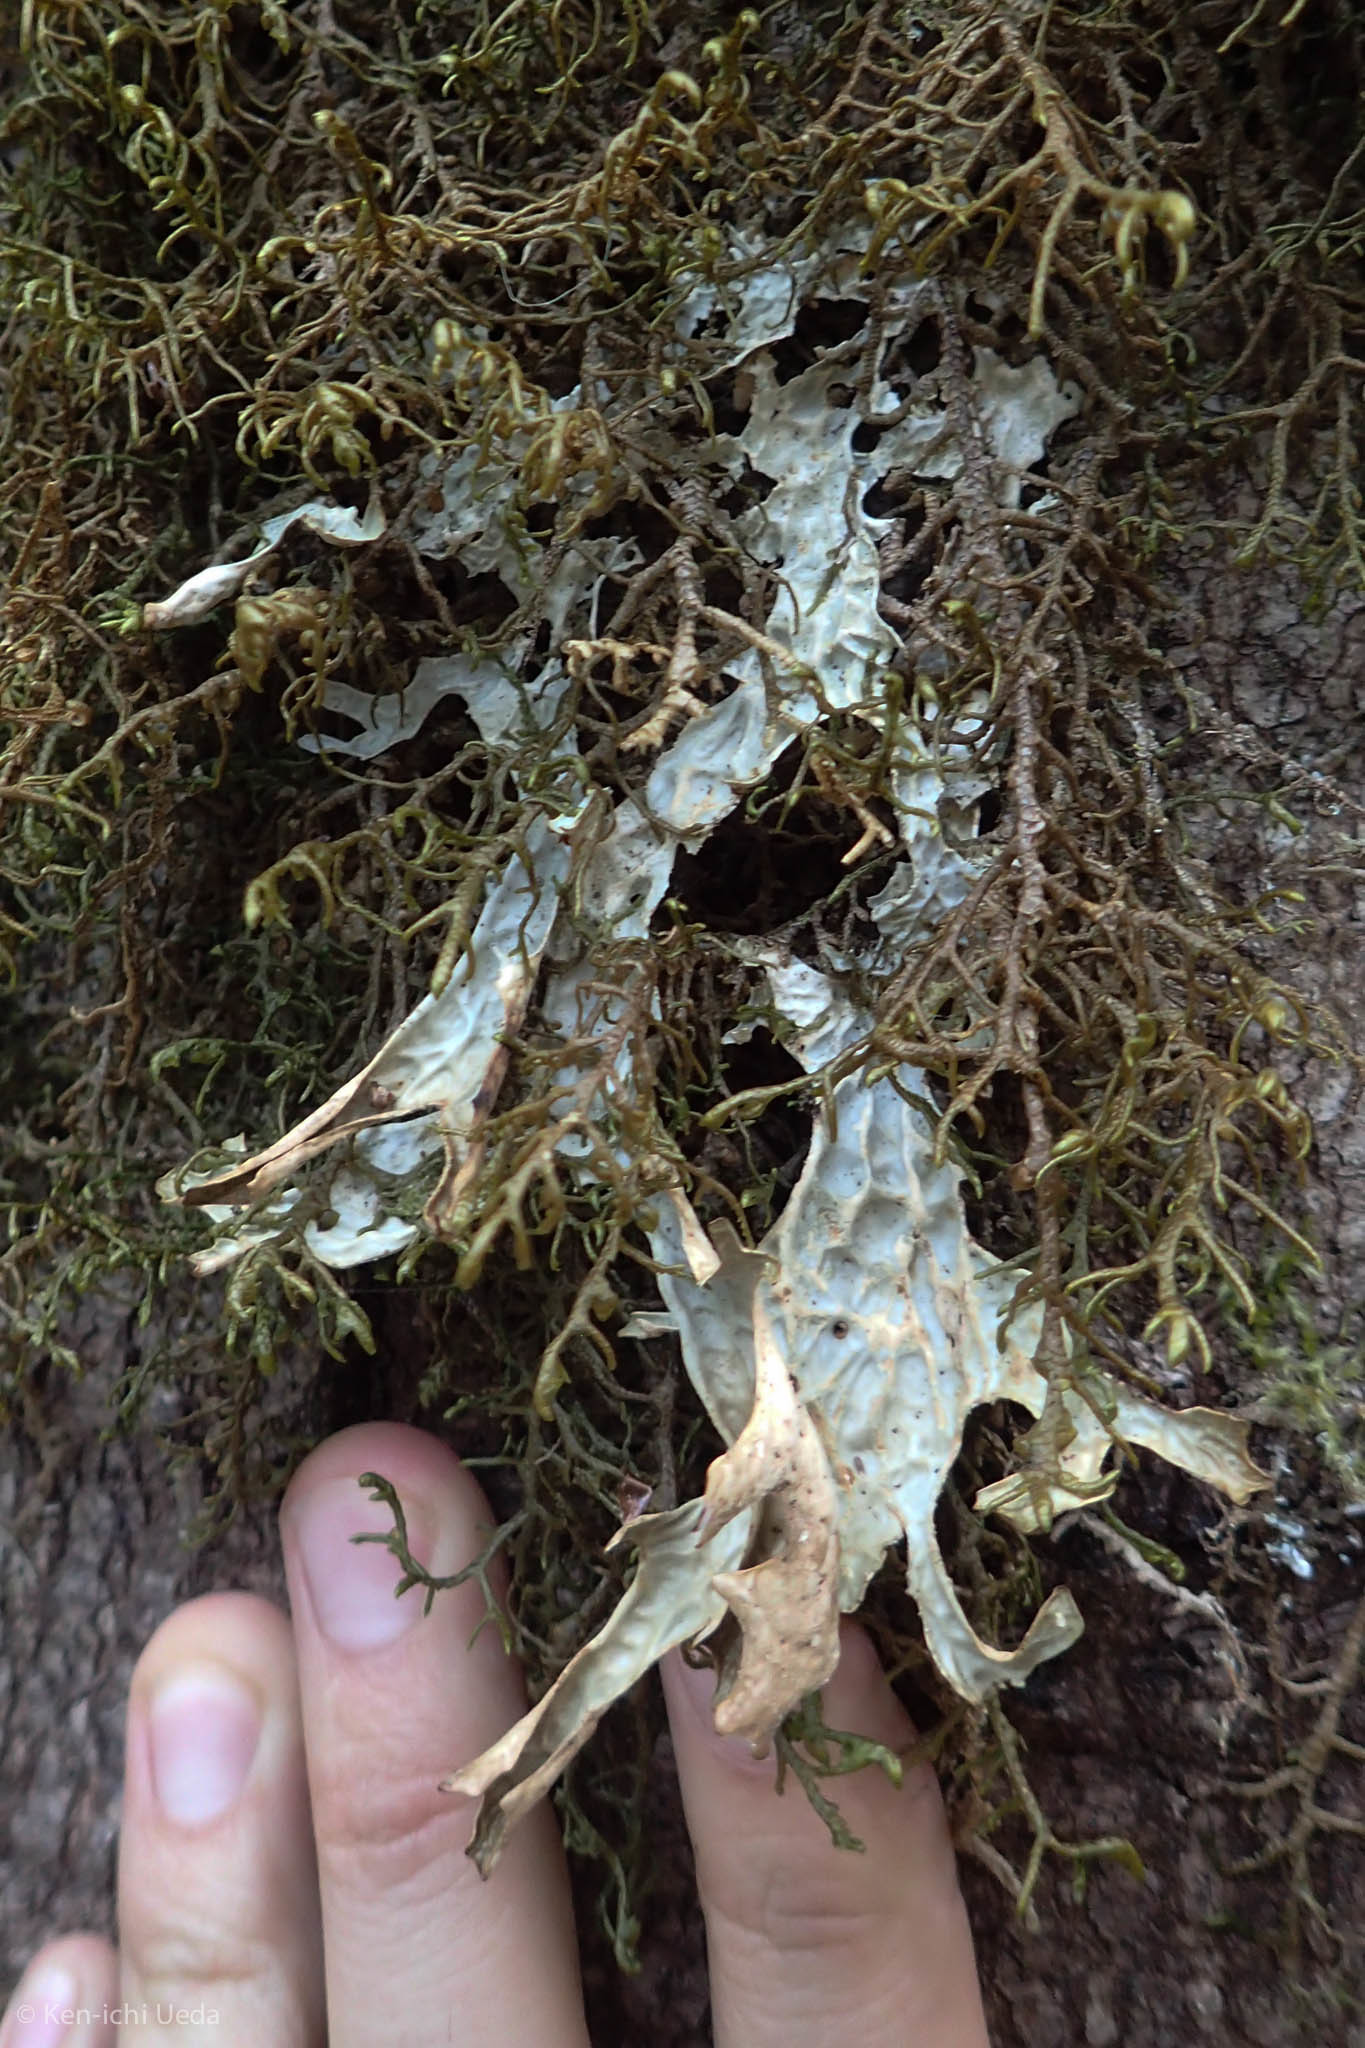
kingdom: Fungi
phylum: Ascomycota
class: Lecanoromycetes
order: Peltigerales
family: Lobariaceae
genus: Lobaria
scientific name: Lobaria pulmonaria
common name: Lungwort
